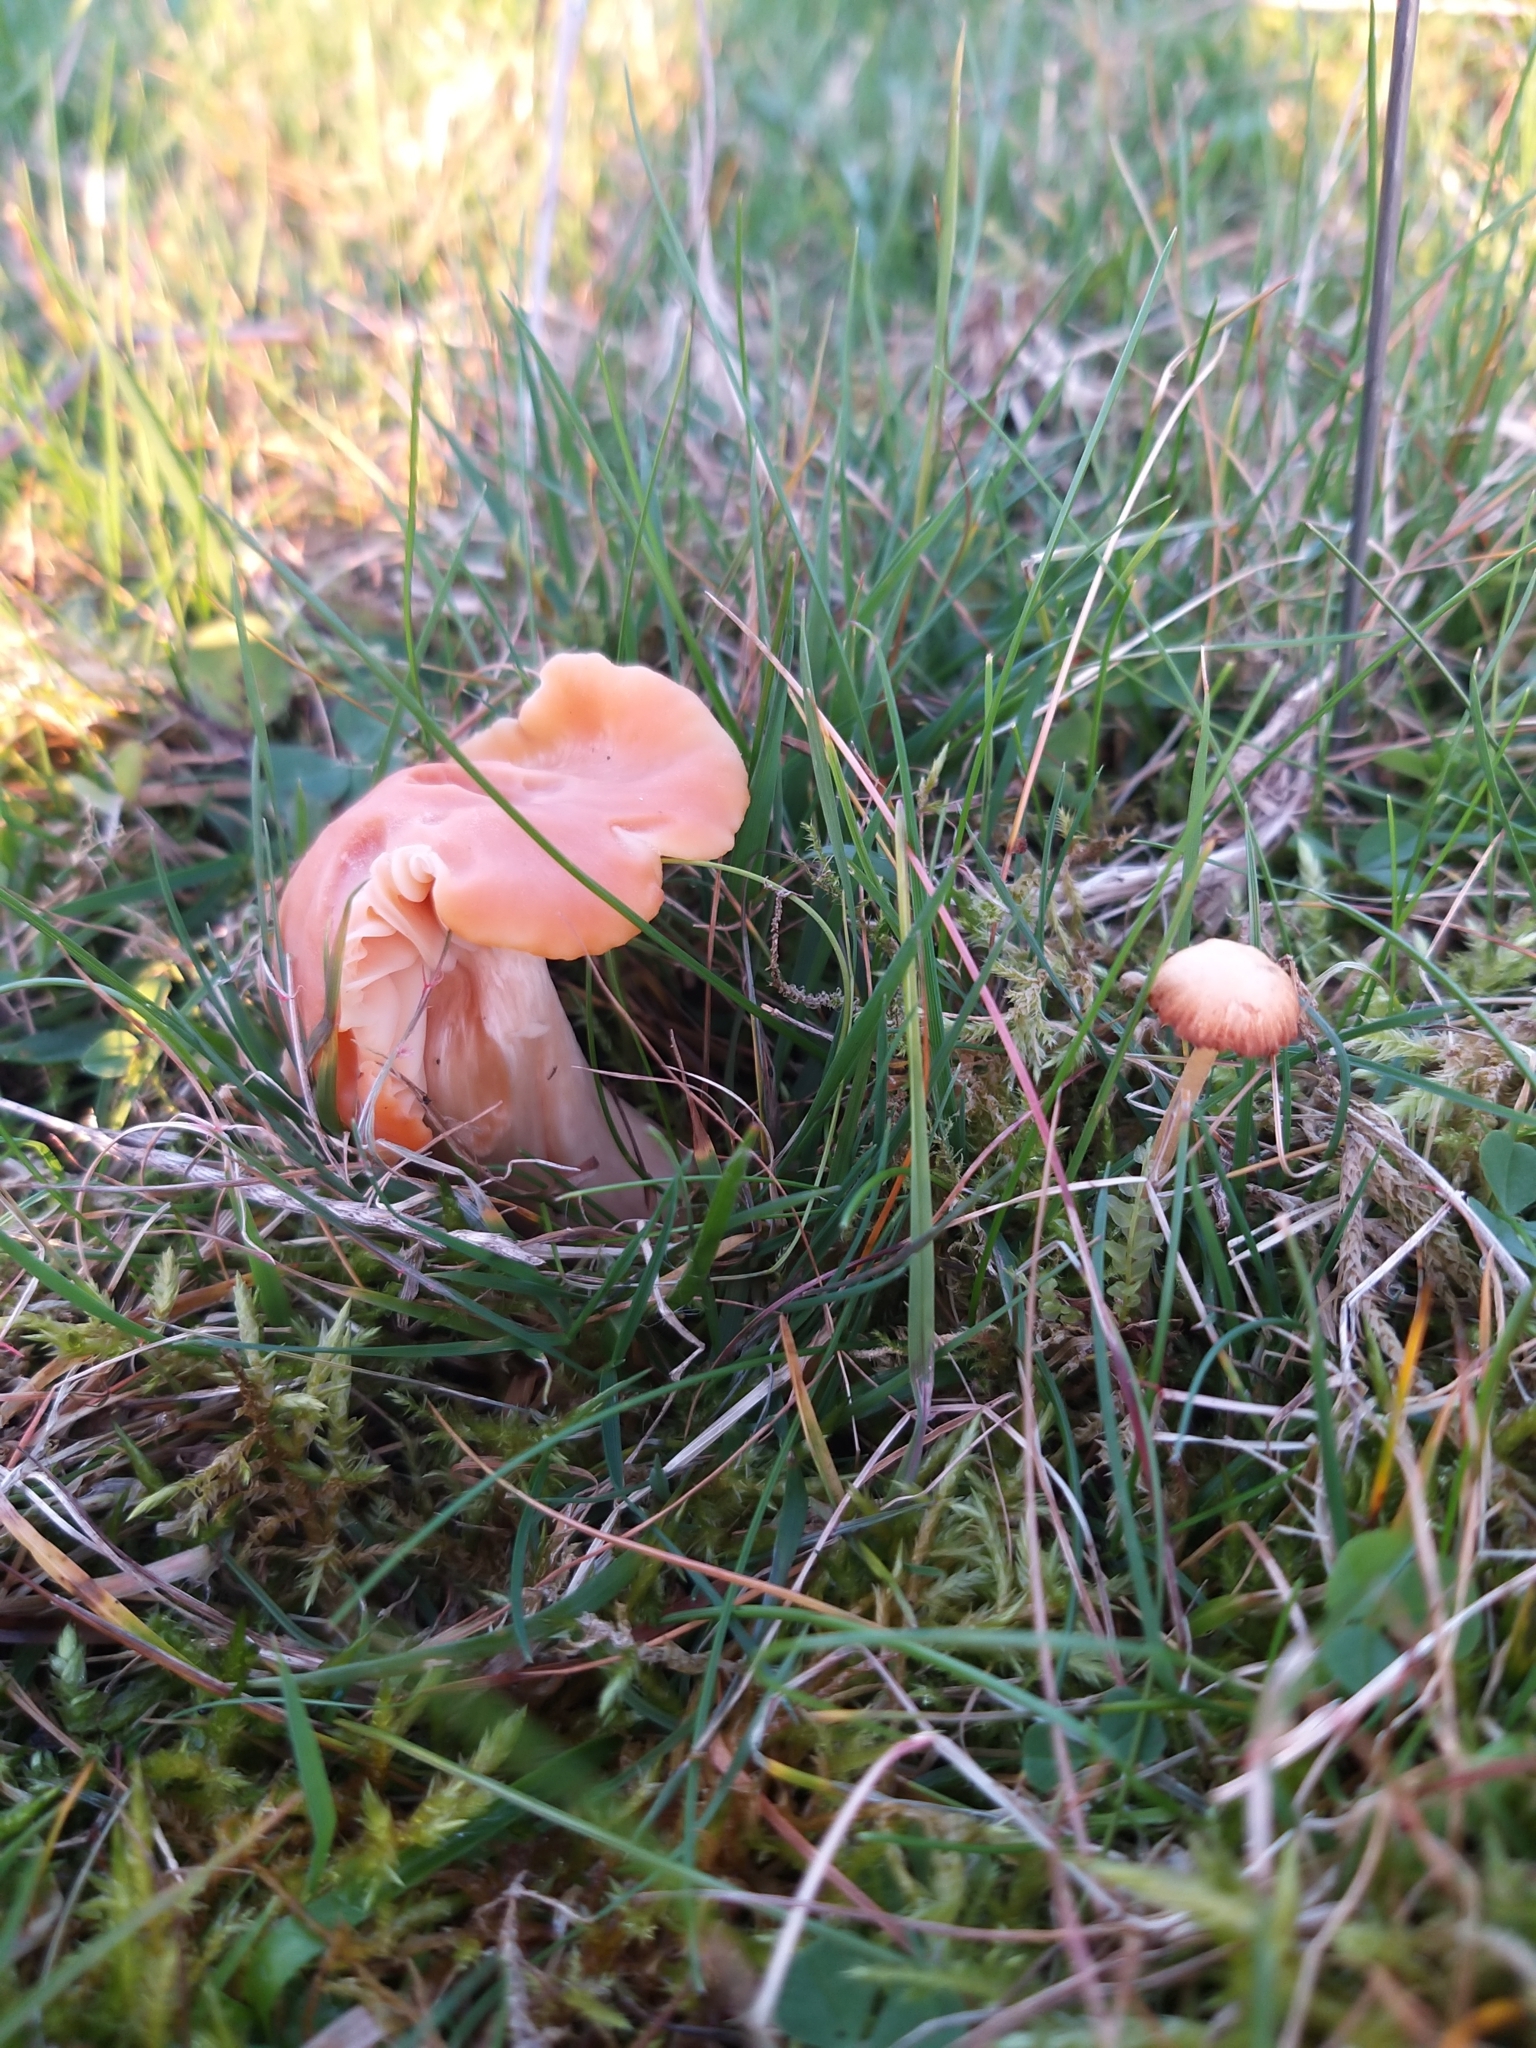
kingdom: Fungi
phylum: Basidiomycota
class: Agaricomycetes
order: Agaricales
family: Hygrophoraceae
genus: Cuphophyllus
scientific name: Cuphophyllus pratensis
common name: Meadow waxcap
